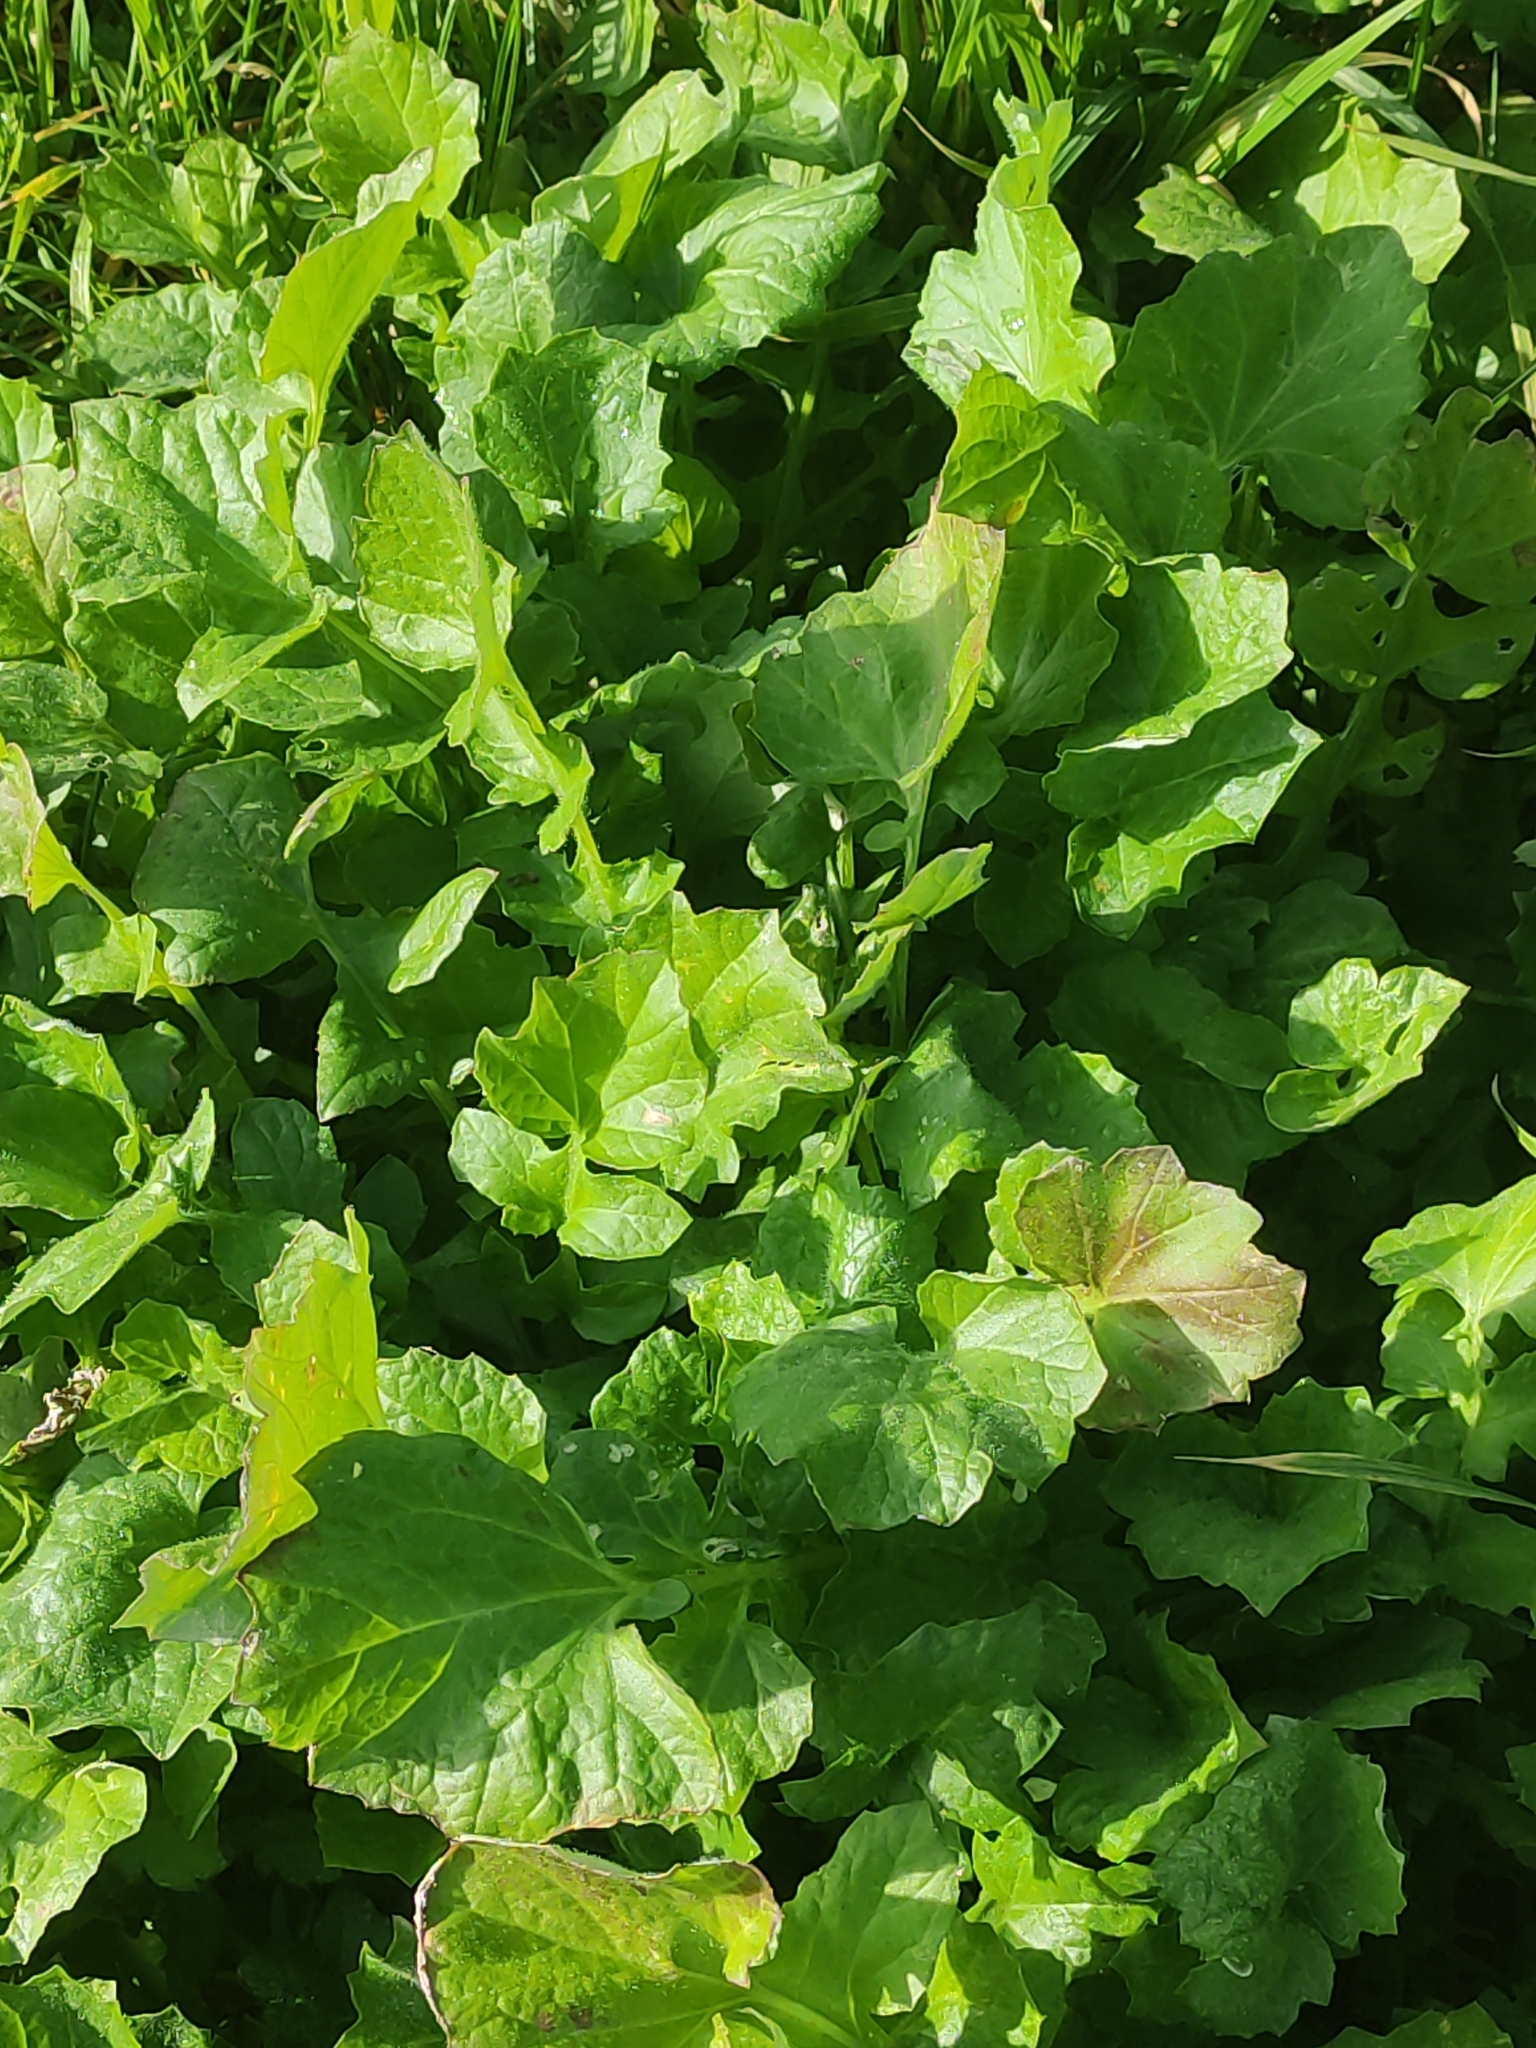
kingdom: Plantae
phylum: Tracheophyta
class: Magnoliopsida
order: Asterales
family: Asteraceae
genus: Arctotheca
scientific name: Arctotheca calendula
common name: Capeweed
